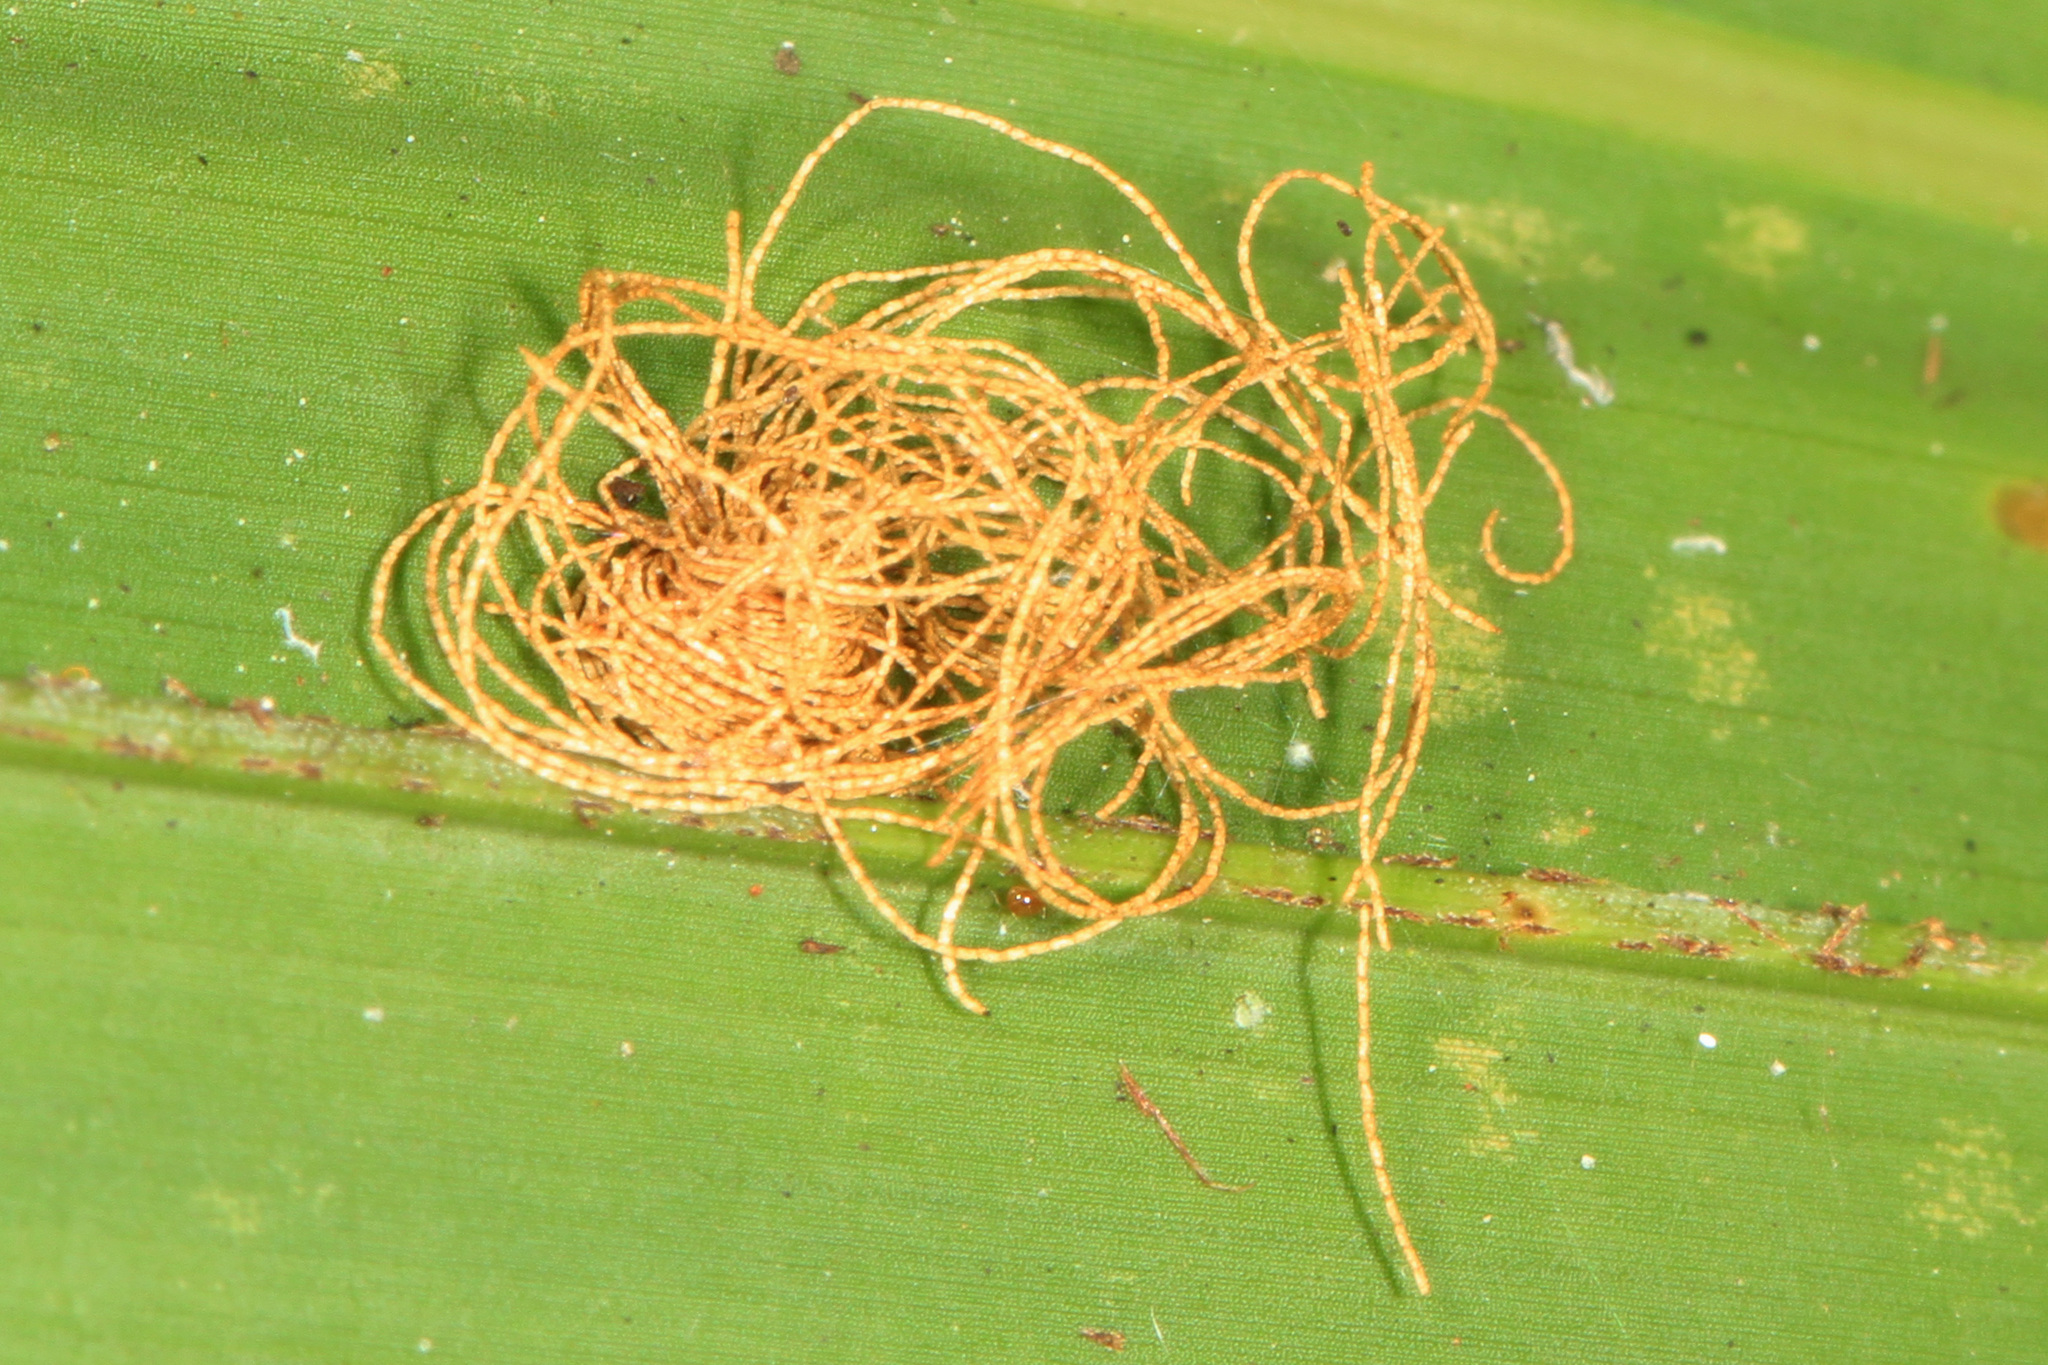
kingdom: Animalia
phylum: Arthropoda
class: Insecta
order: Coleoptera
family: Chrysomelidae
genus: Hemisphaerota
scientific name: Hemisphaerota cyanea
